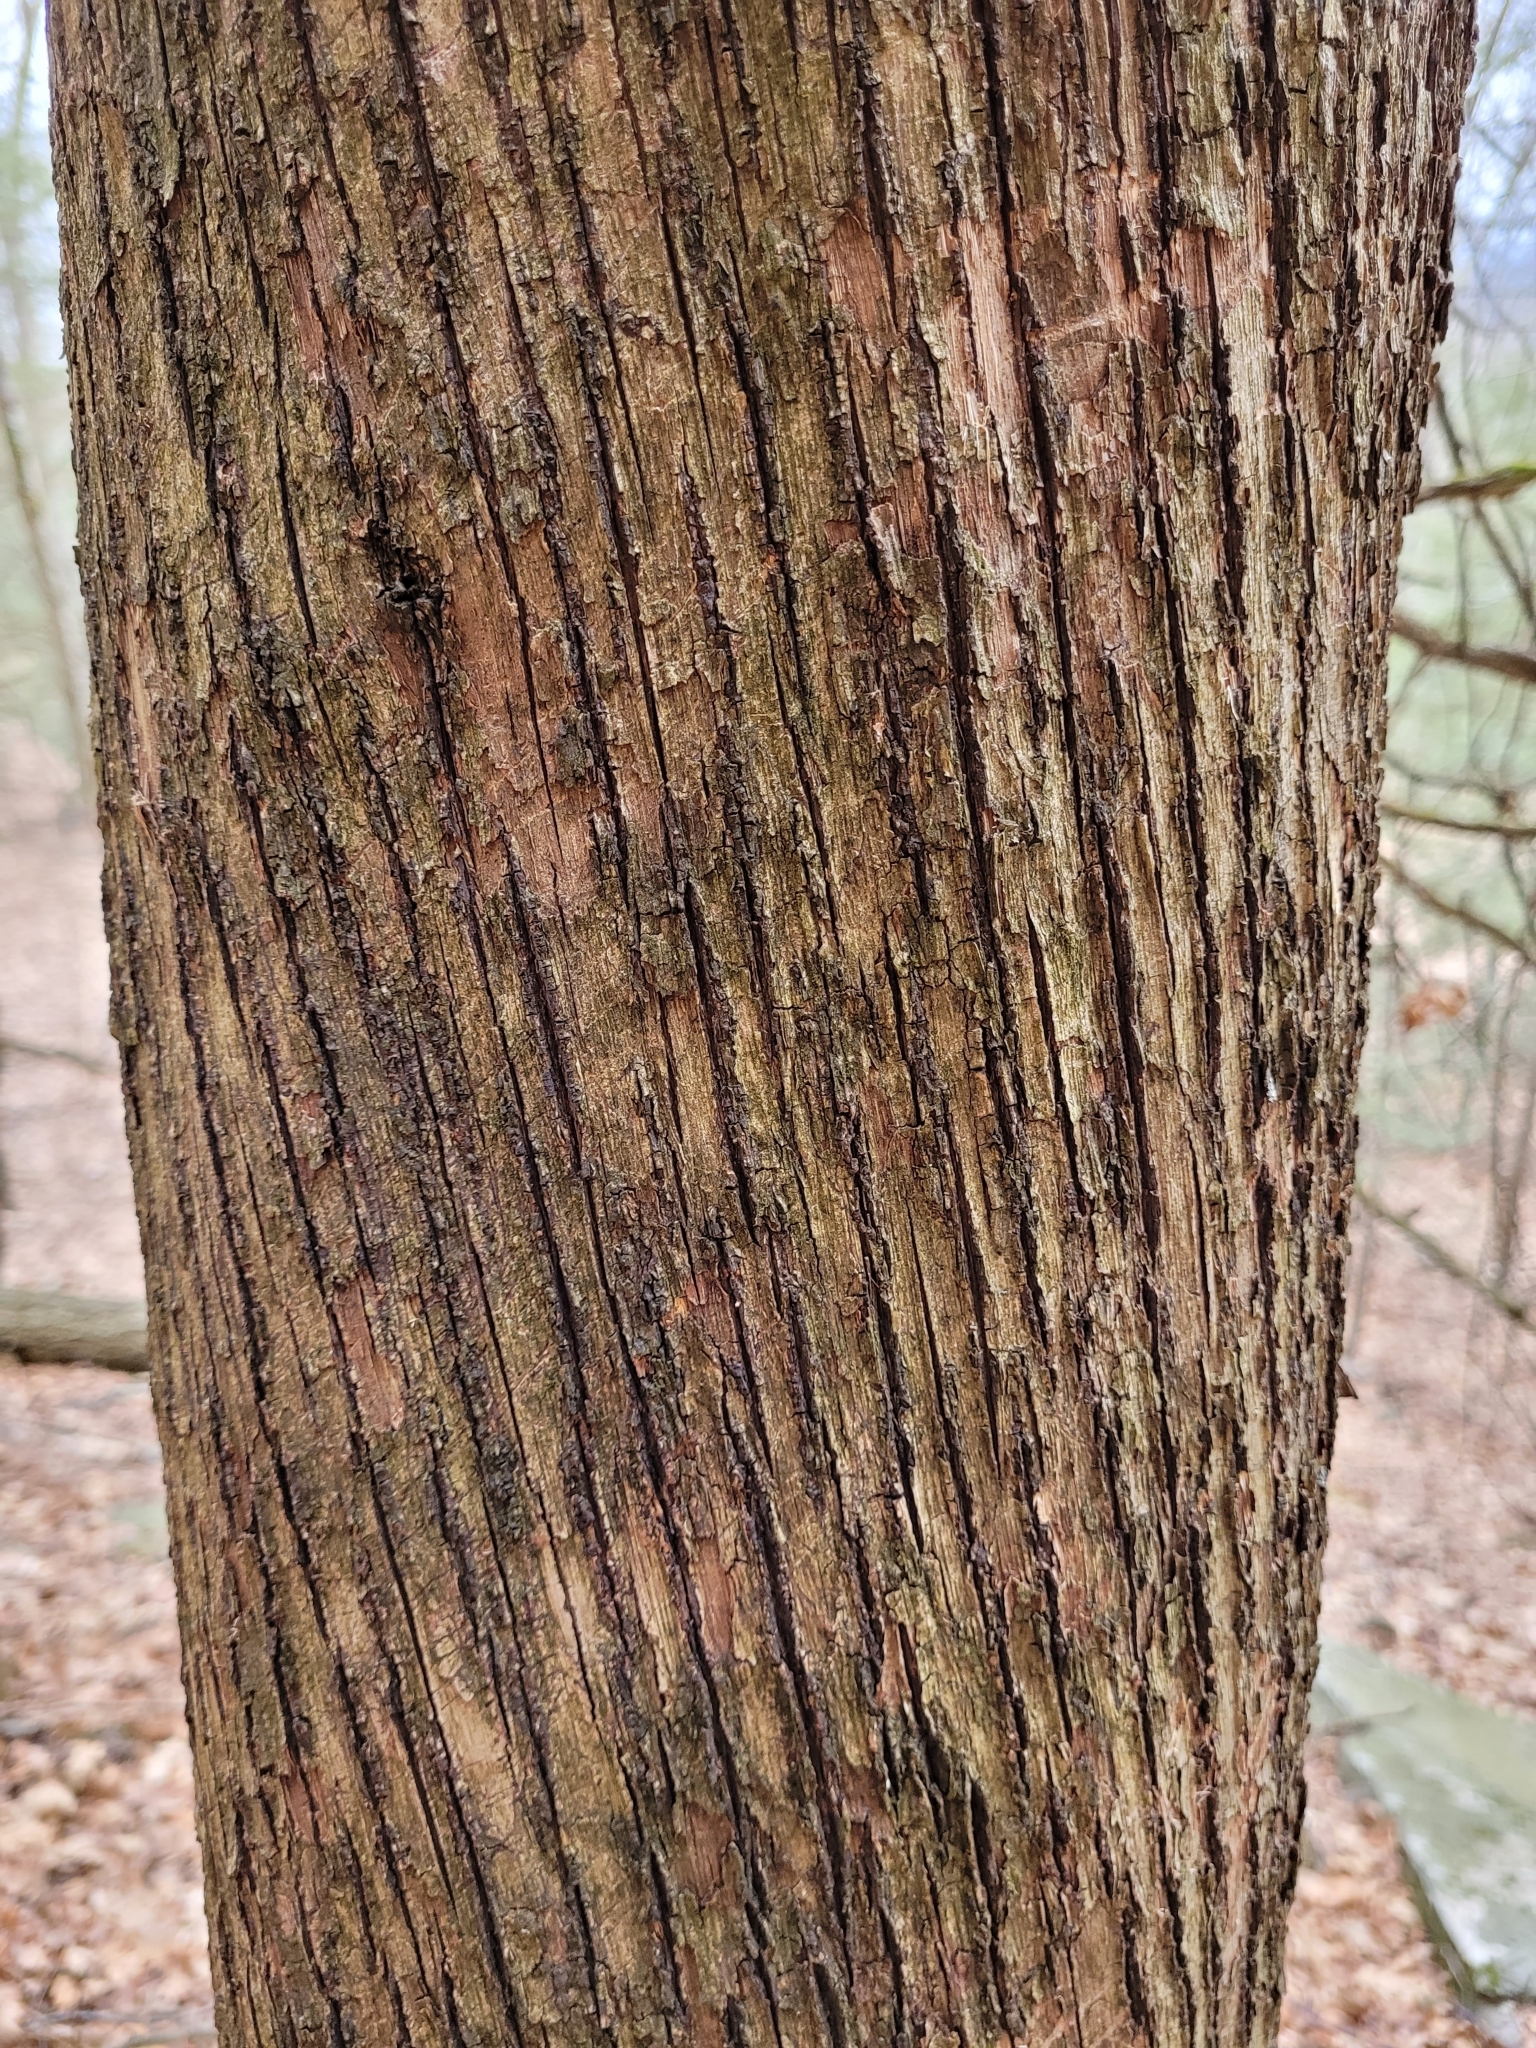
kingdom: Plantae
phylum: Tracheophyta
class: Magnoliopsida
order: Fagales
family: Betulaceae
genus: Ostrya
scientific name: Ostrya virginiana
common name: Ironwood
